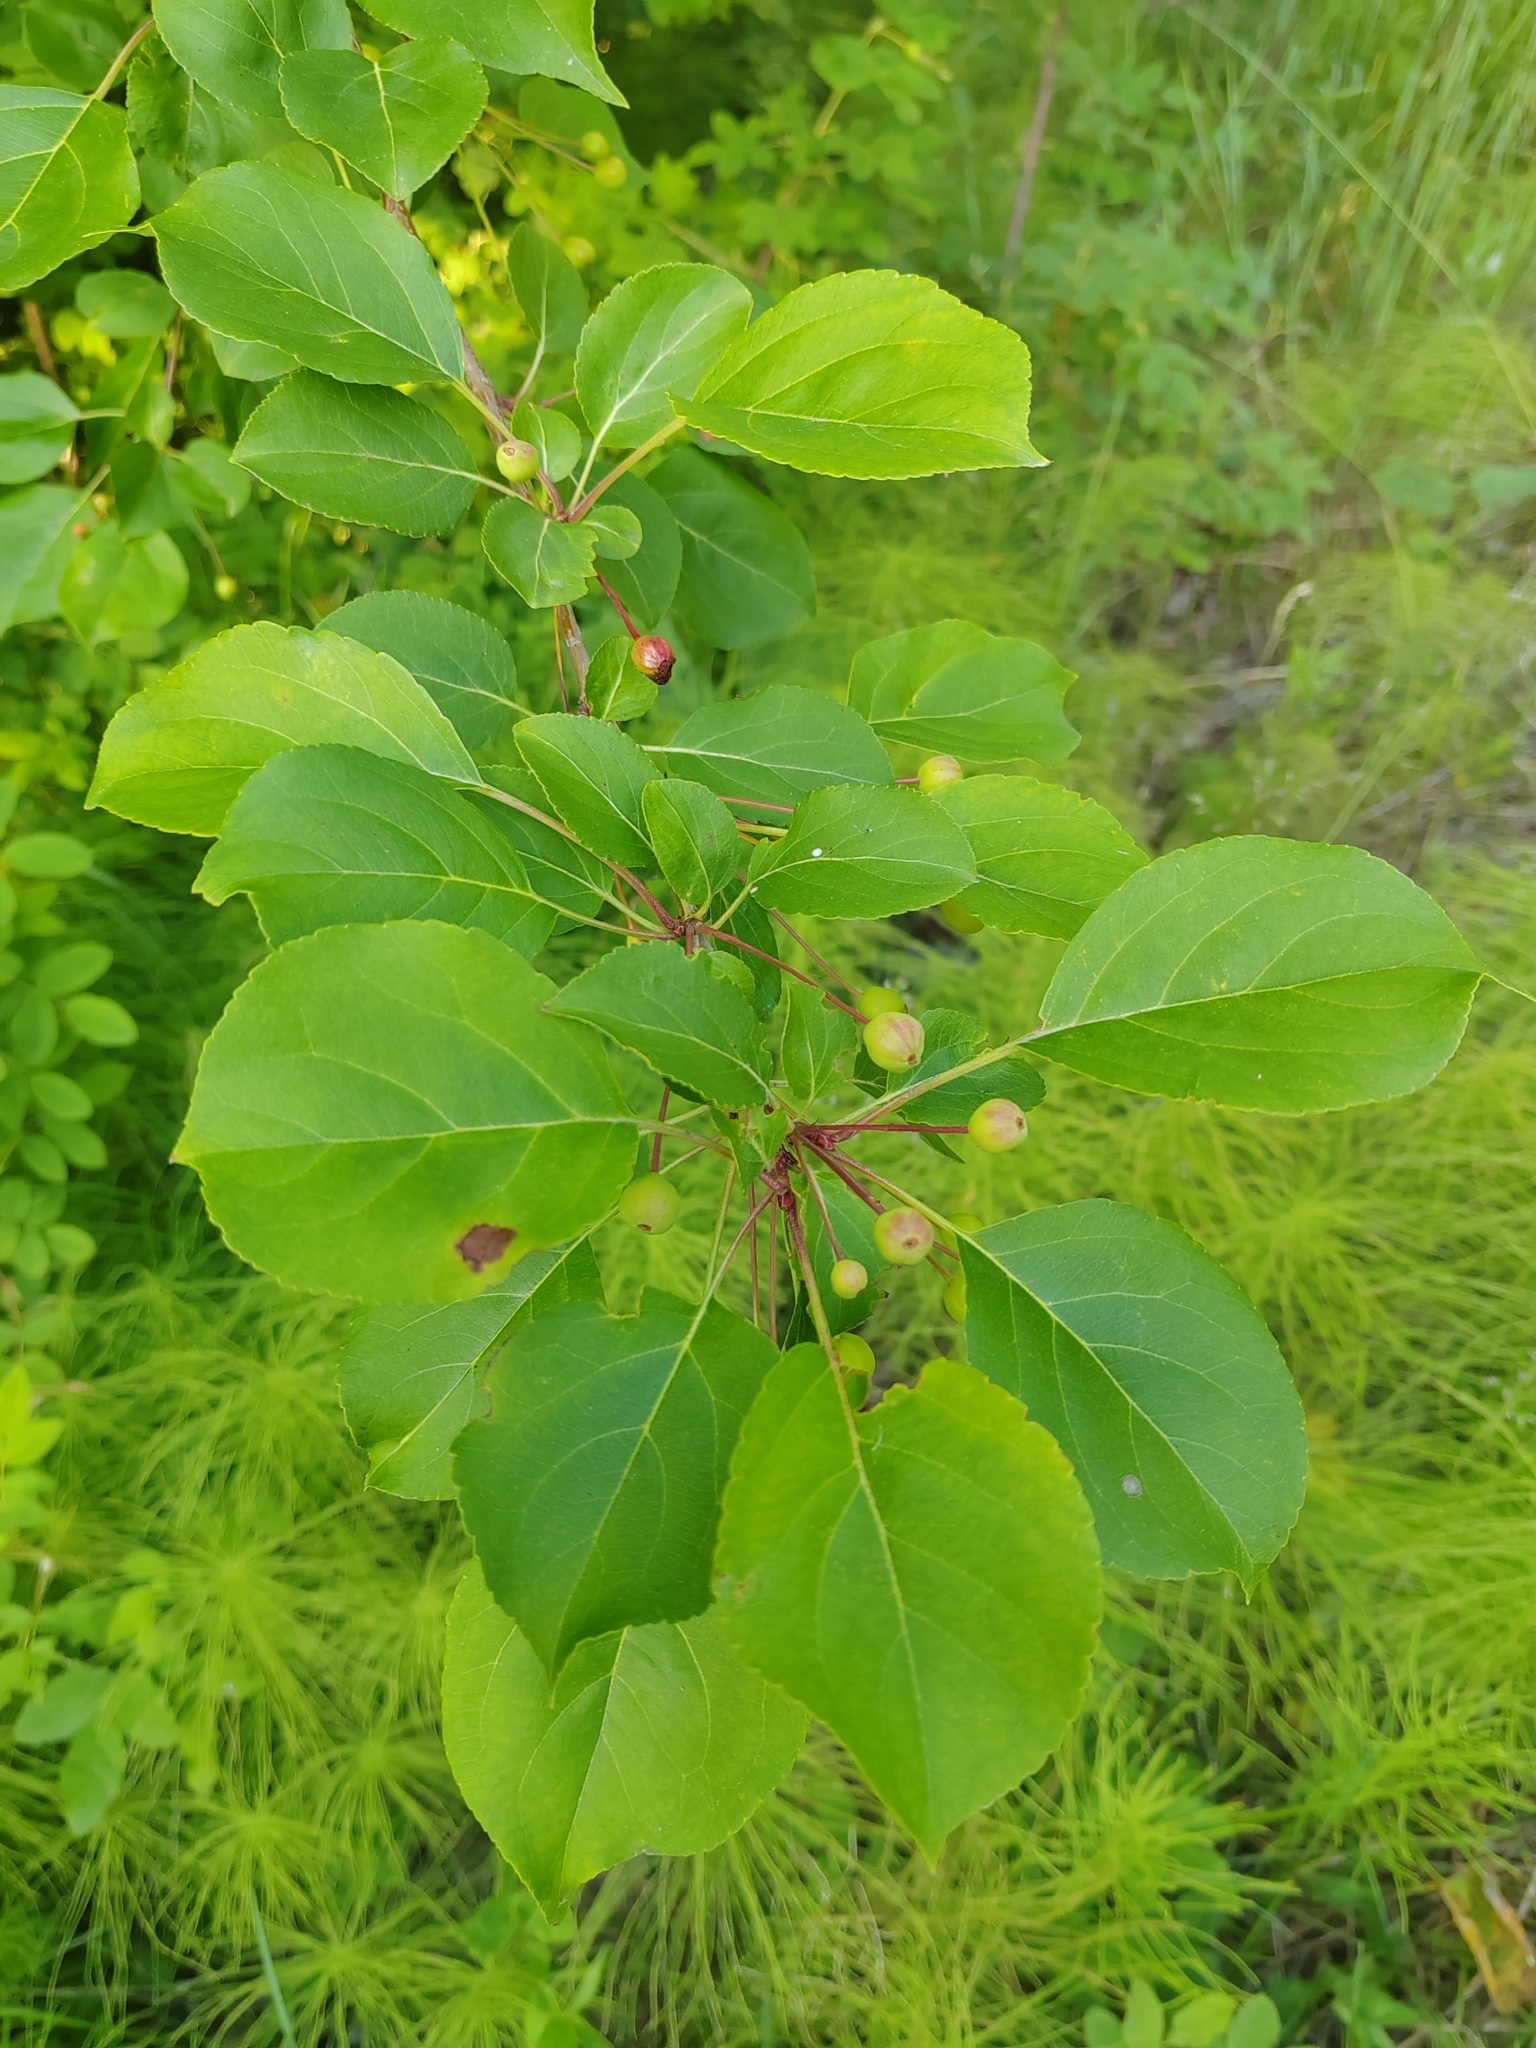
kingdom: Plantae
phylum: Tracheophyta
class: Magnoliopsida
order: Rosales
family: Rosaceae
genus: Malus
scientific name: Malus baccata
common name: Siberian crab
